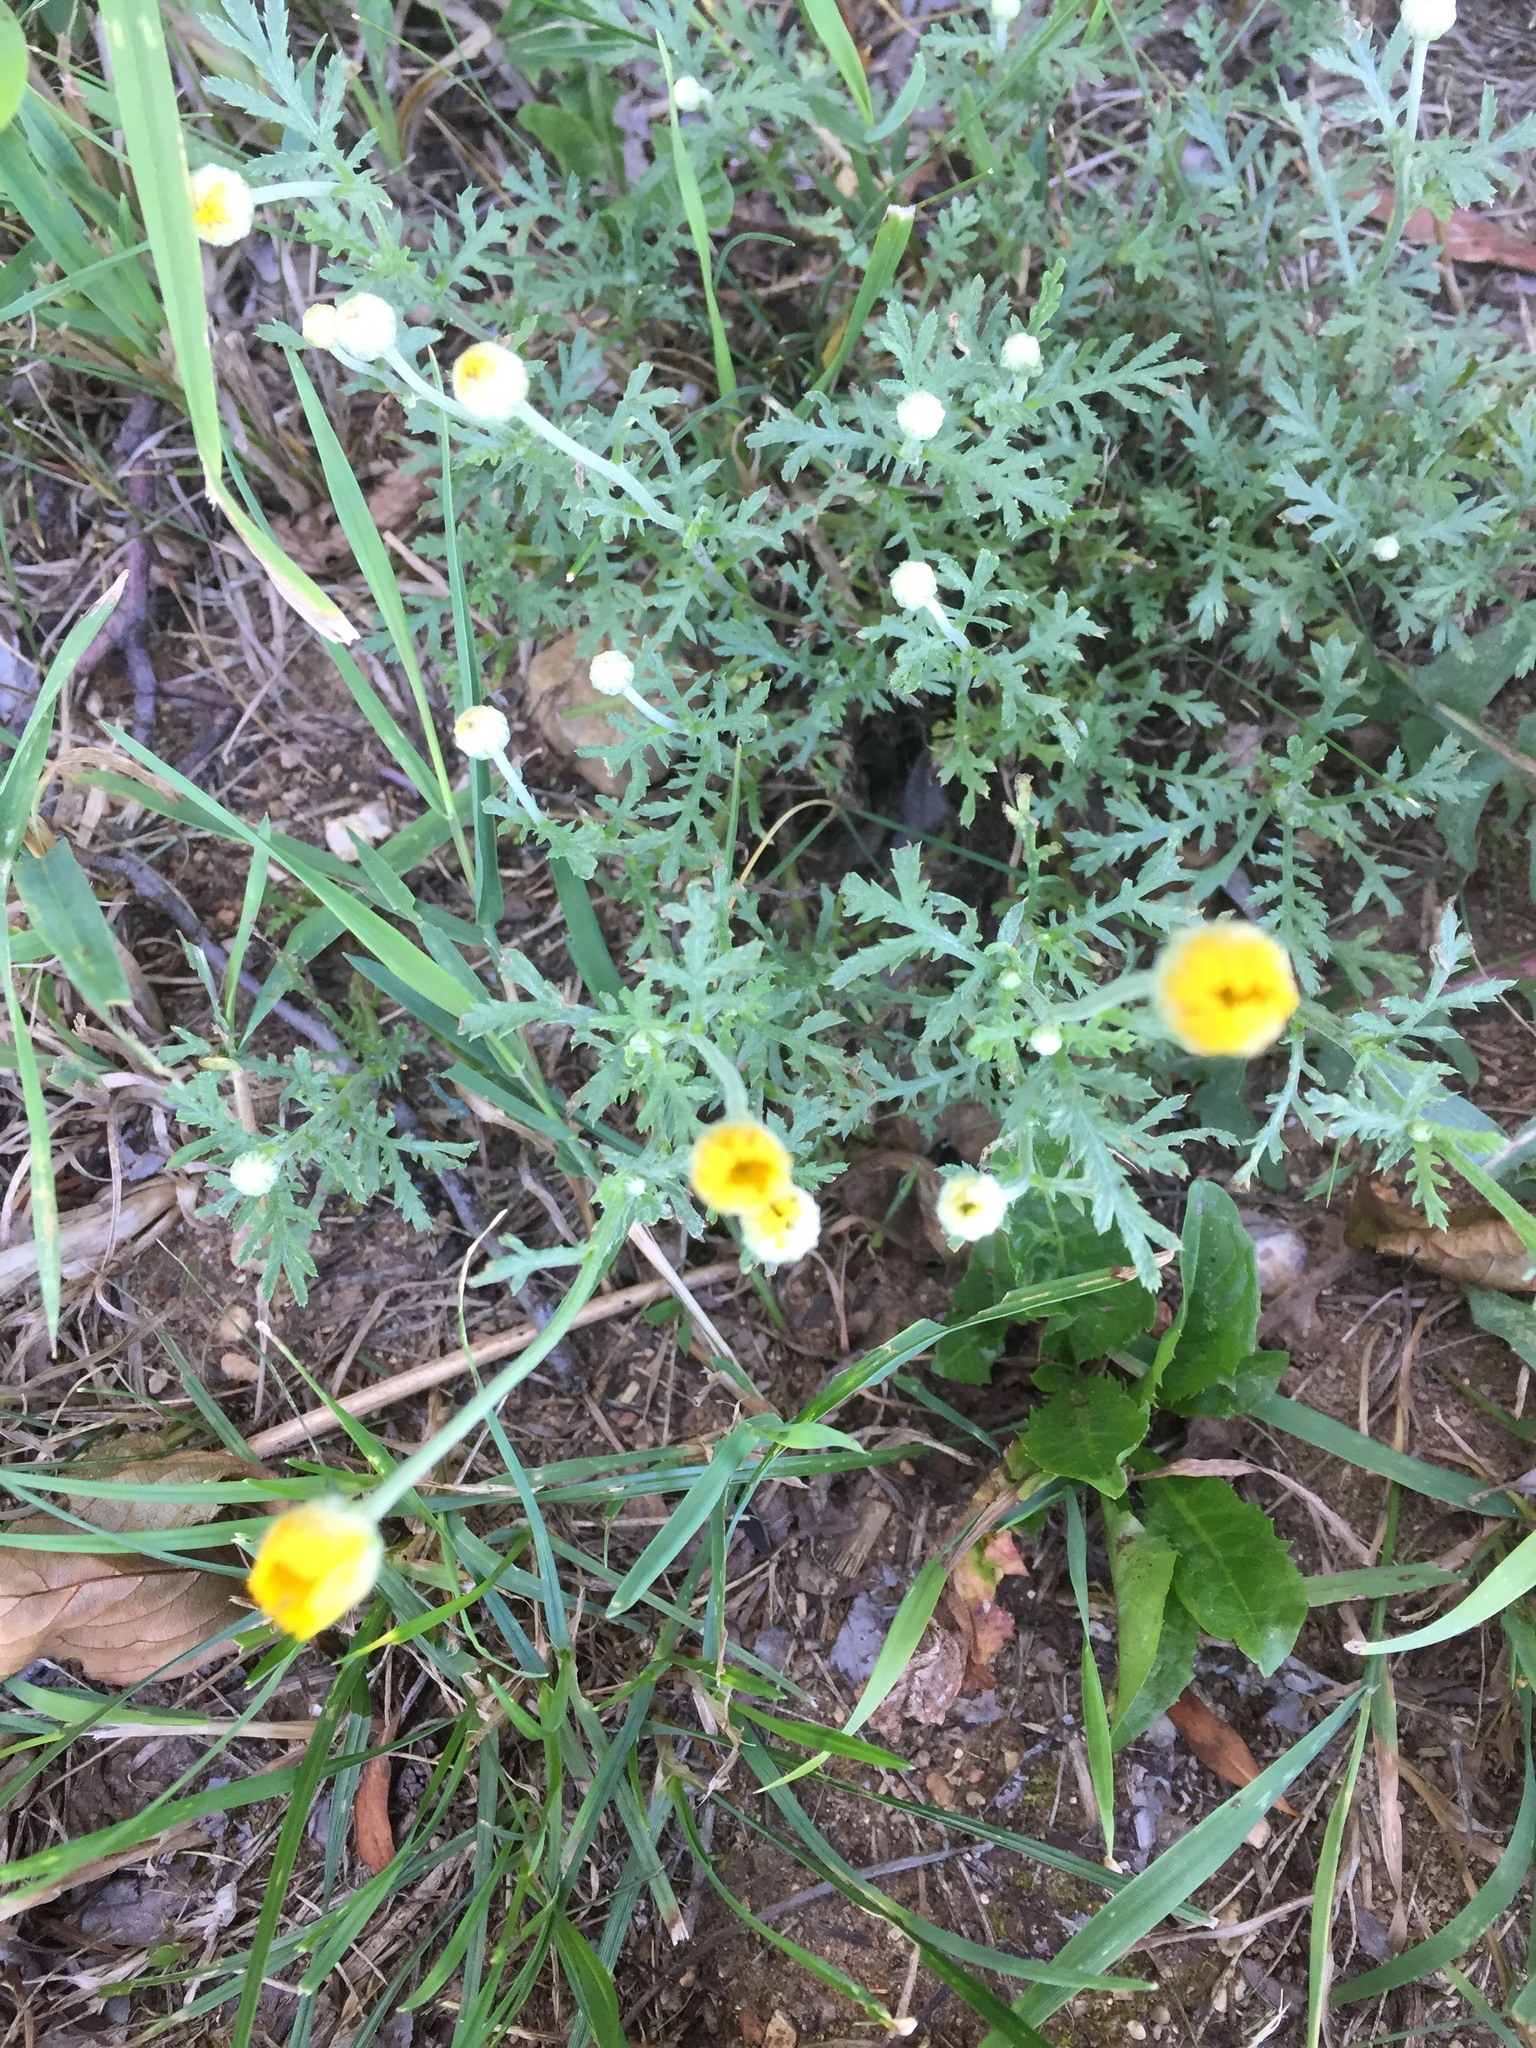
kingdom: Plantae
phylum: Tracheophyta
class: Magnoliopsida
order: Asterales
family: Asteraceae
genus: Cota
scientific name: Cota tinctoria
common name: Golden chamomile
